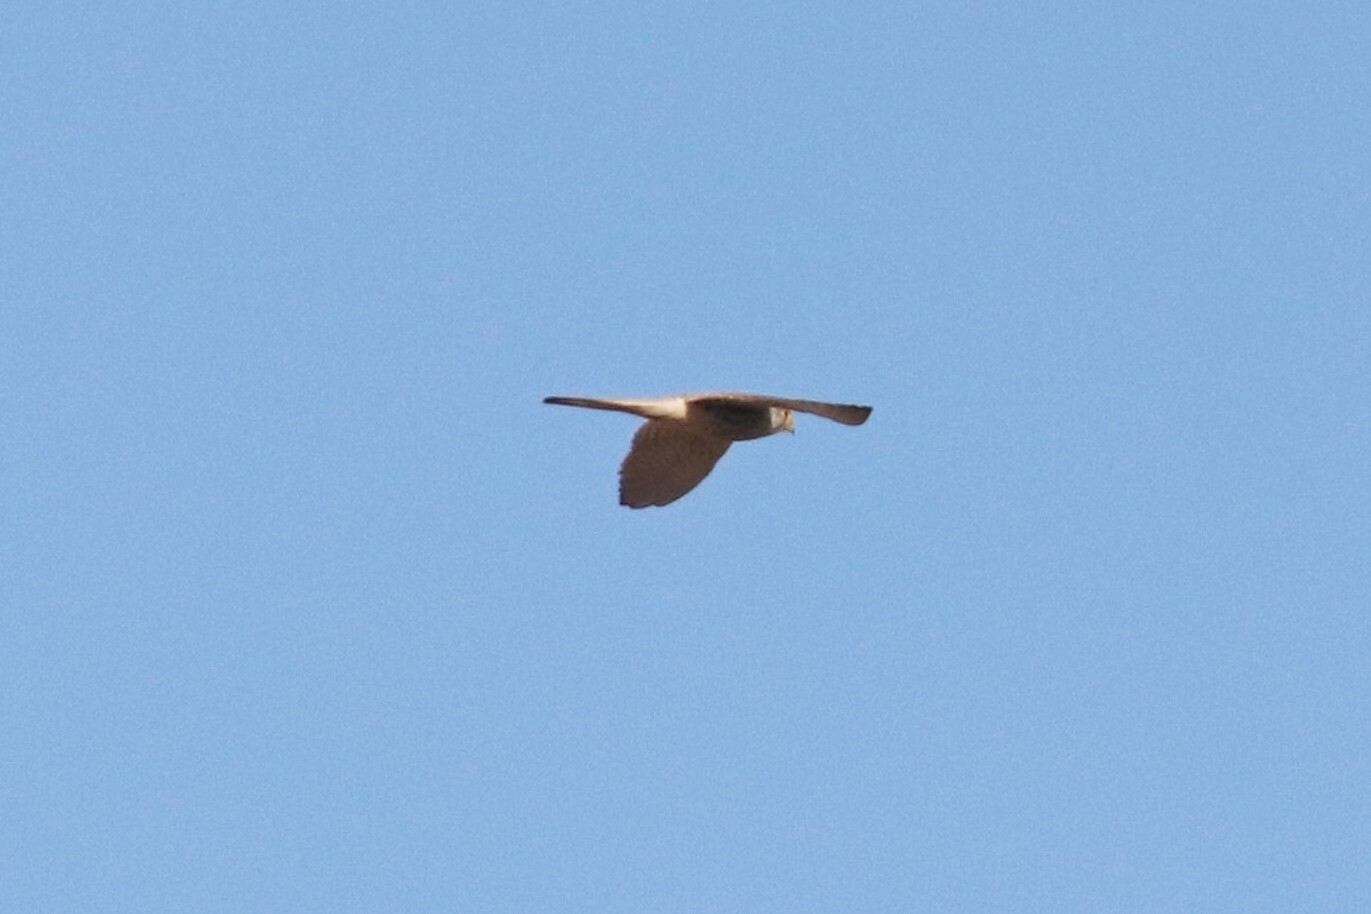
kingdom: Animalia
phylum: Chordata
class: Aves
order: Falconiformes
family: Falconidae
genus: Falco
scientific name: Falco tinnunculus
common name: Common kestrel
